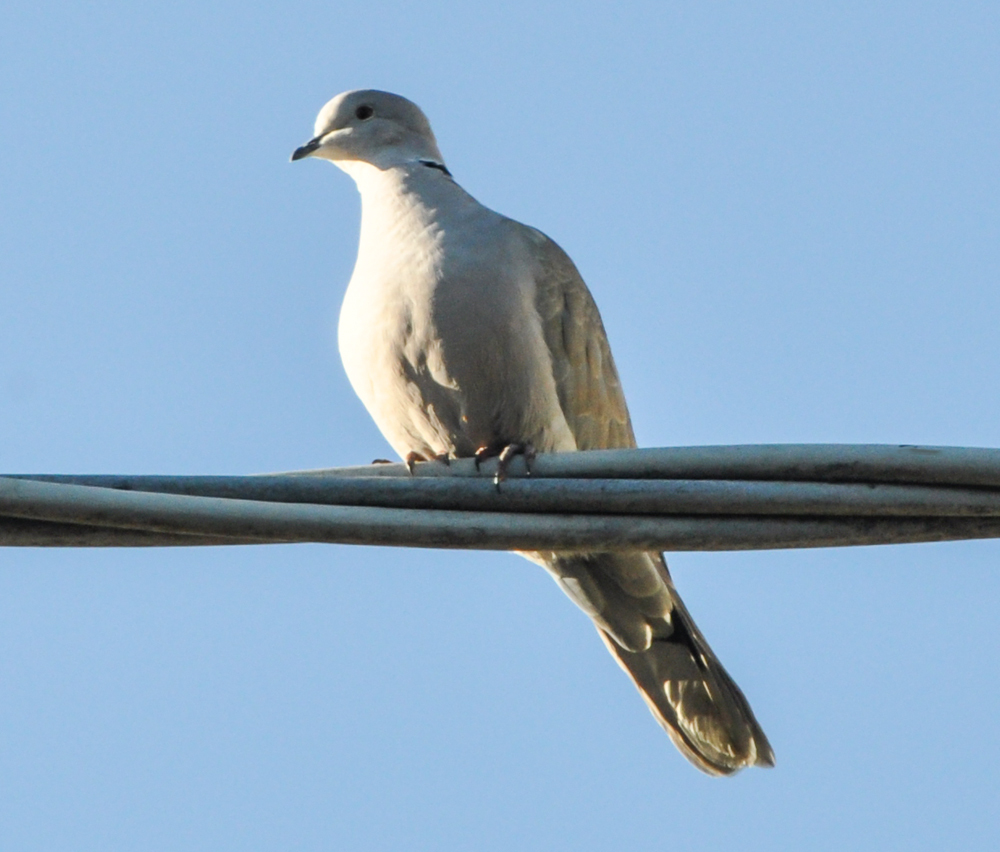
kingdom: Animalia
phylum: Chordata
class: Aves
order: Columbiformes
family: Columbidae
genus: Streptopelia
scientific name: Streptopelia decaocto
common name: Eurasian collared dove
